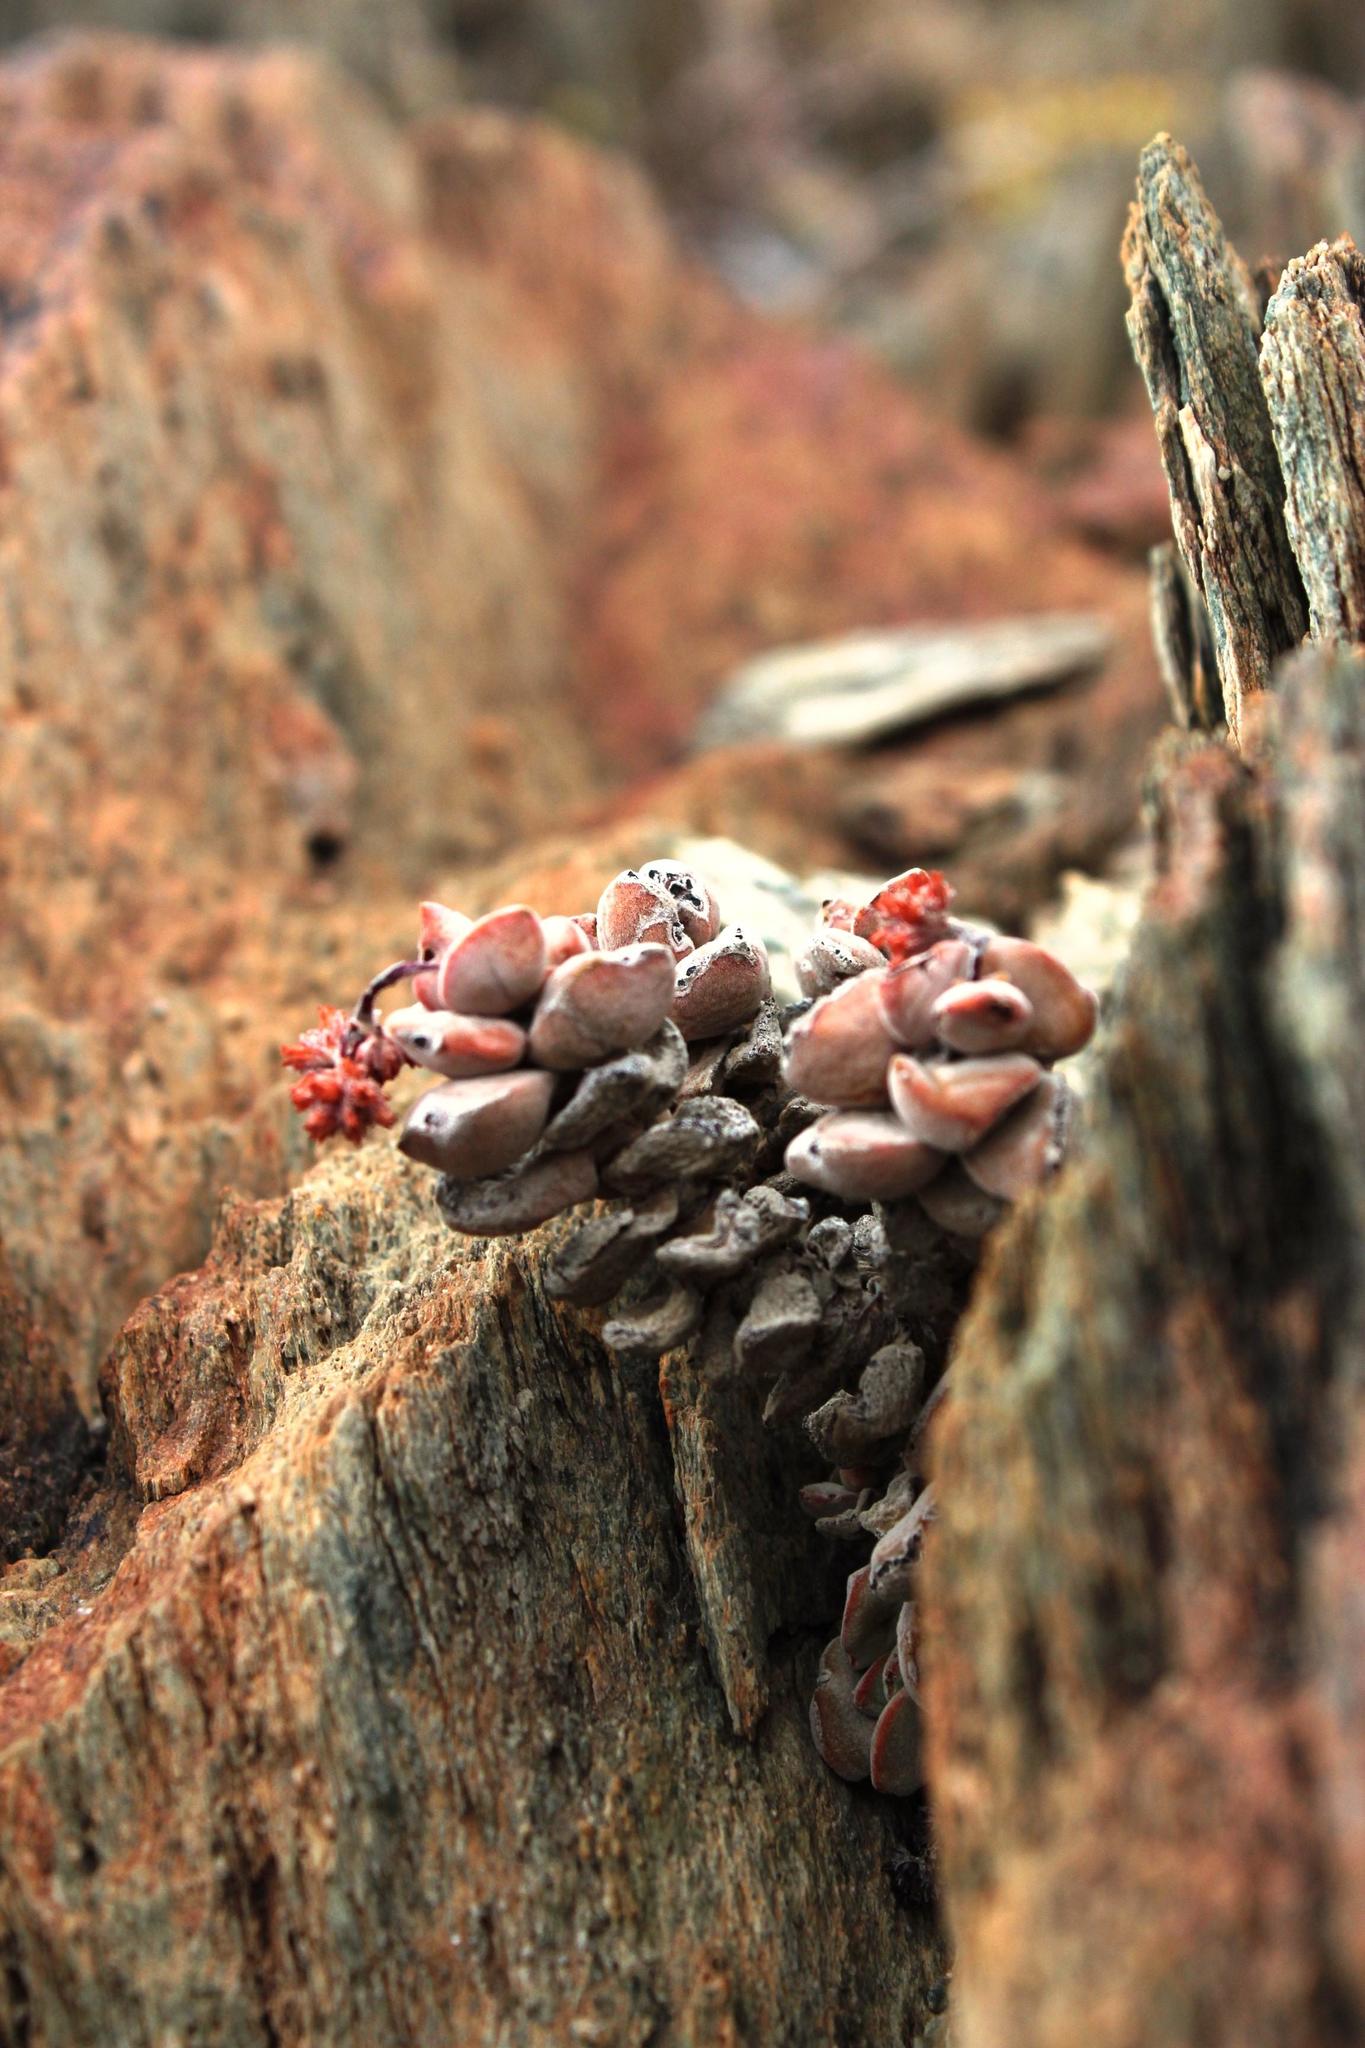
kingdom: Plantae
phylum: Tracheophyta
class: Magnoliopsida
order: Saxifragales
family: Crassulaceae
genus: Crassula
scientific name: Crassula sericea
